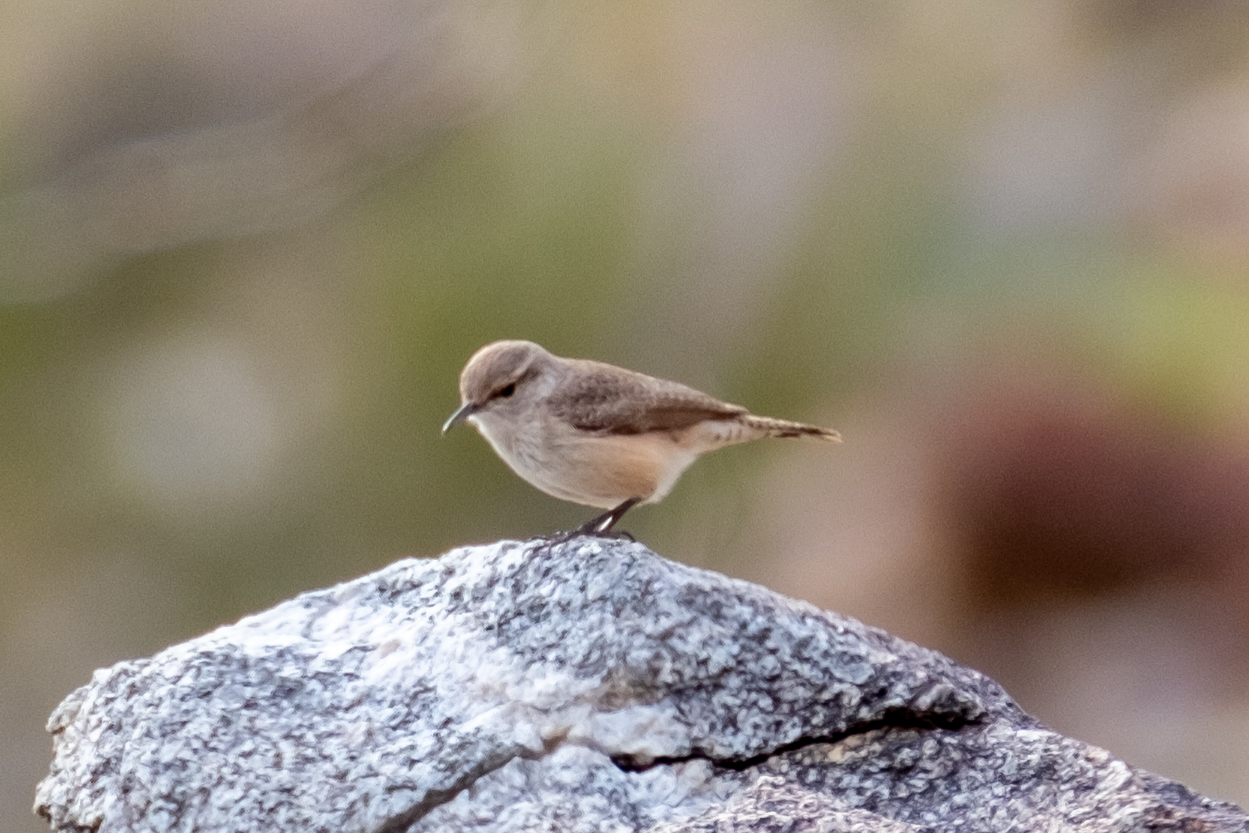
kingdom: Animalia
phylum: Chordata
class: Aves
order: Passeriformes
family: Troglodytidae
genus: Salpinctes
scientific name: Salpinctes obsoletus
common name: Rock wren
